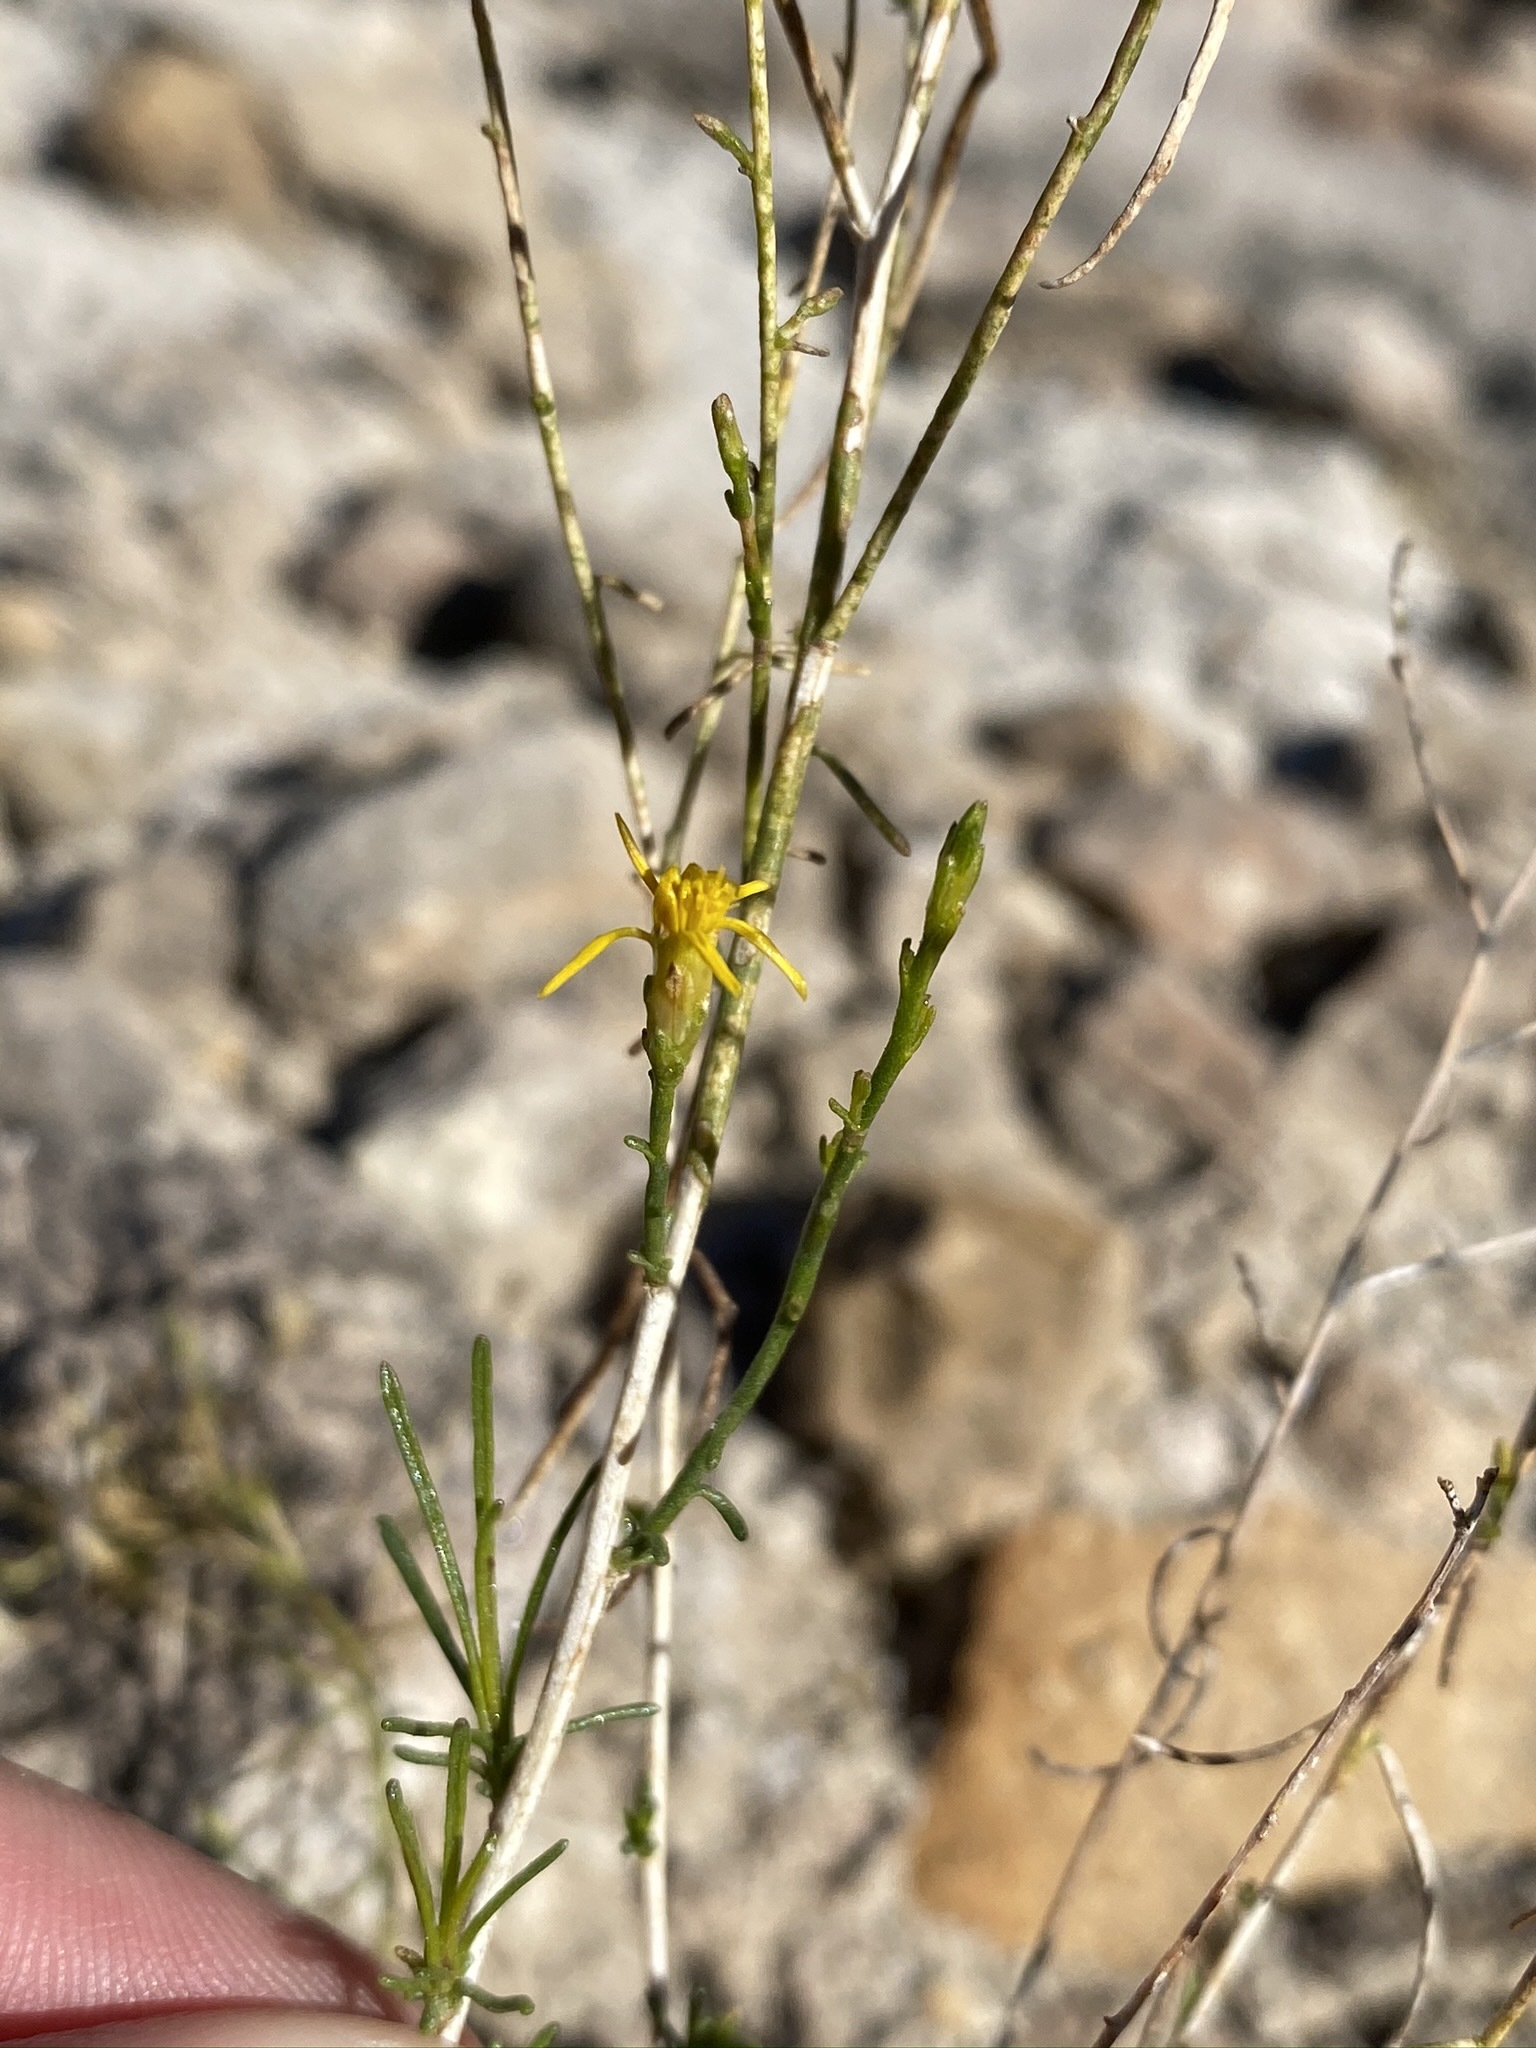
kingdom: Plantae
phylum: Tracheophyta
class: Magnoliopsida
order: Asterales
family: Asteraceae
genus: Gutierrezia
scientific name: Gutierrezia californica
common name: California matchweed
